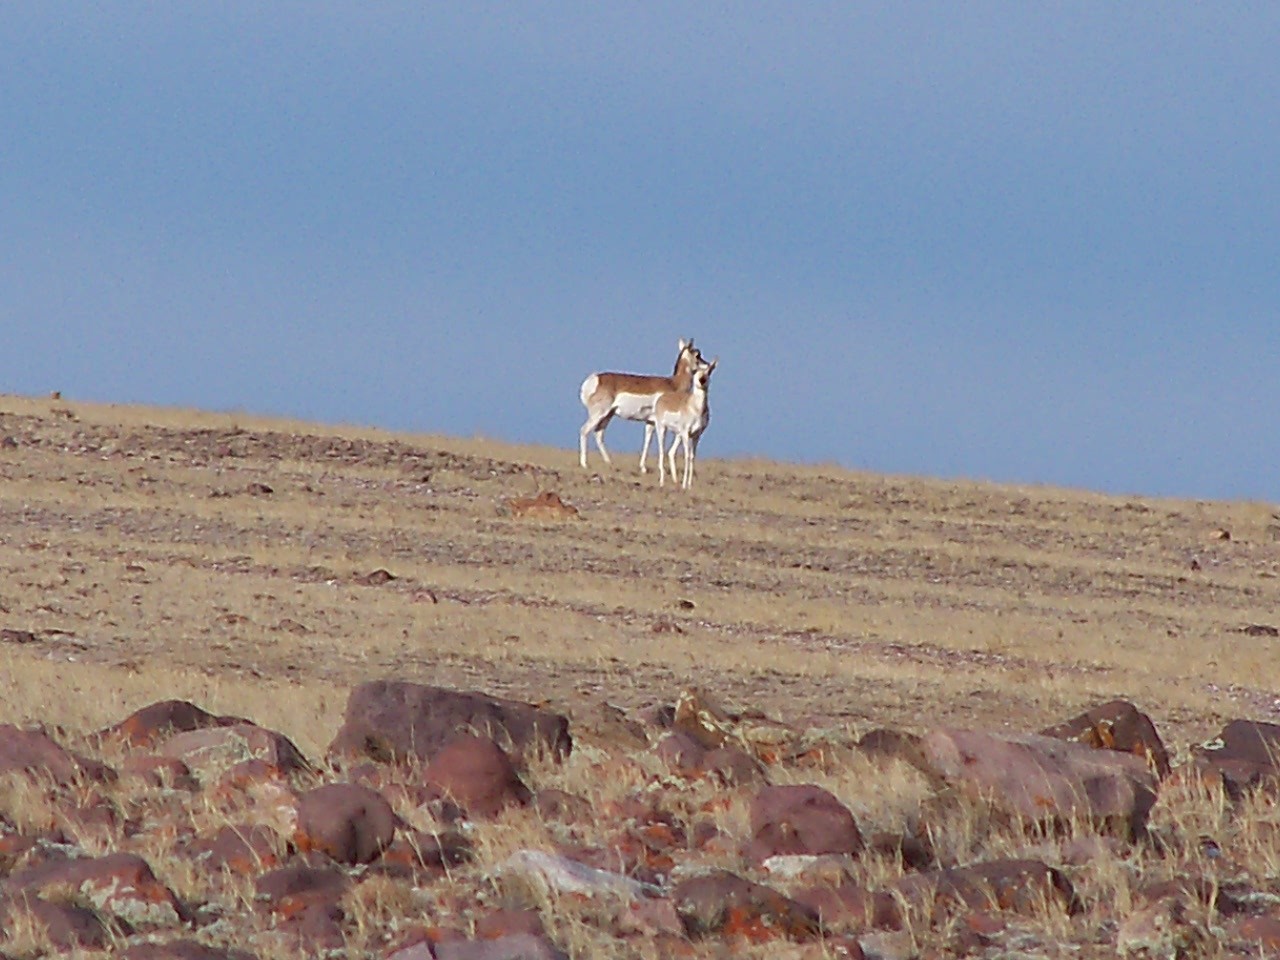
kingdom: Animalia
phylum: Chordata
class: Mammalia
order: Artiodactyla
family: Antilocapridae
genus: Antilocapra
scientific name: Antilocapra americana
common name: Pronghorn
